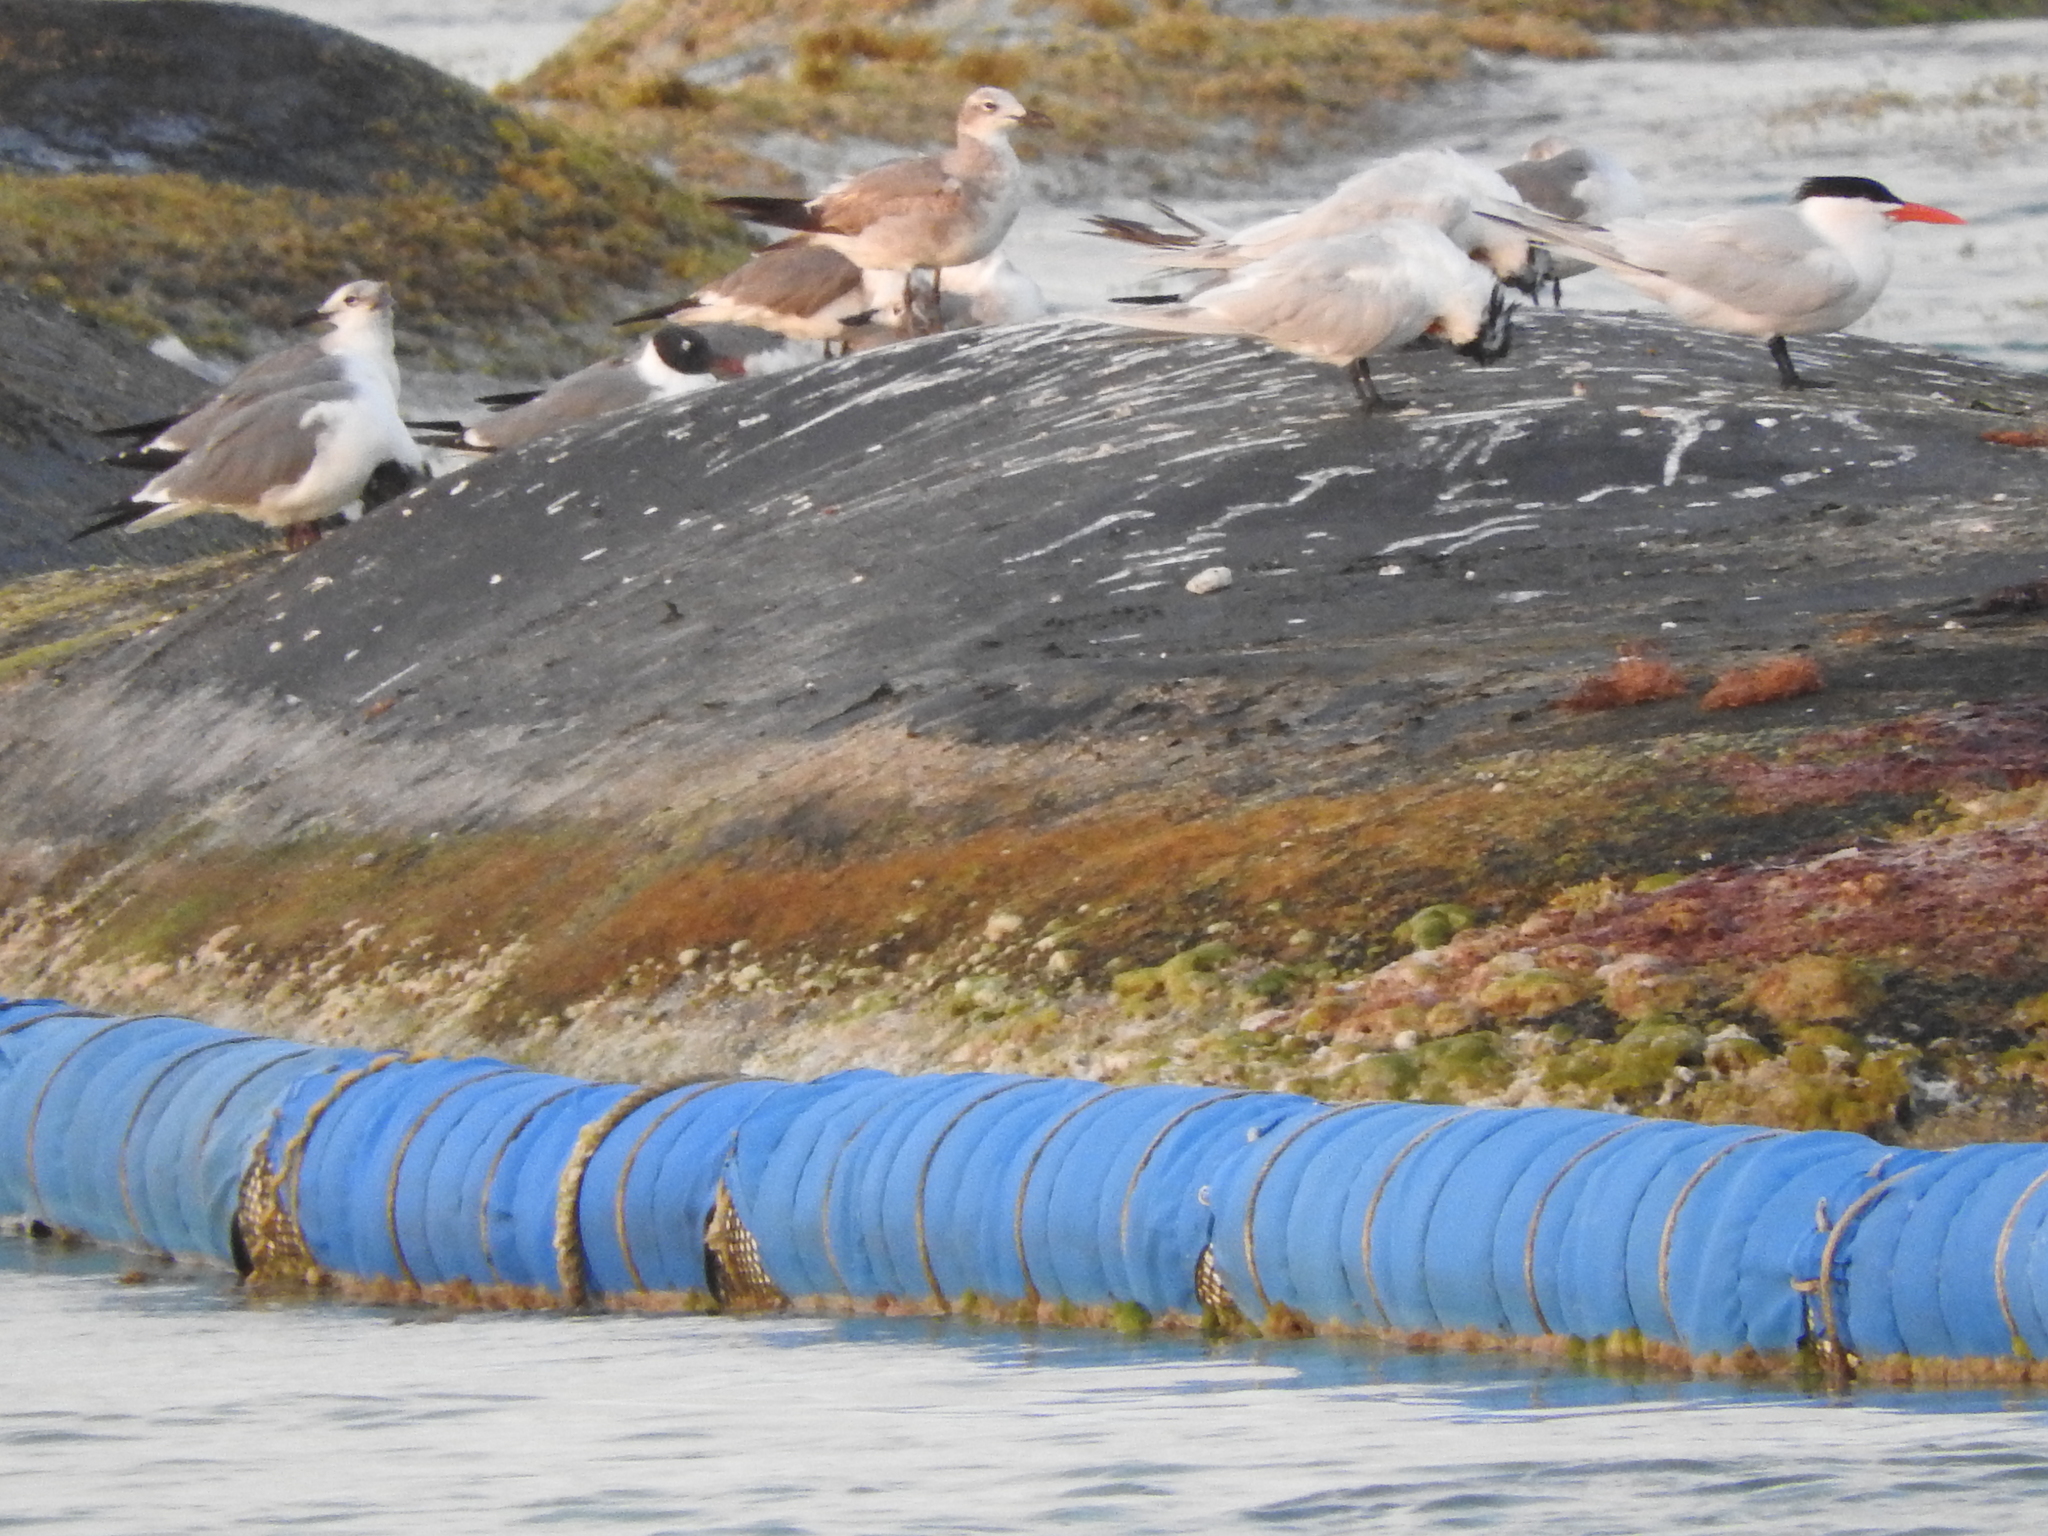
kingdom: Animalia
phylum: Chordata
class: Aves
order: Charadriiformes
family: Laridae
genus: Thalasseus
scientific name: Thalasseus maximus
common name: Royal tern
